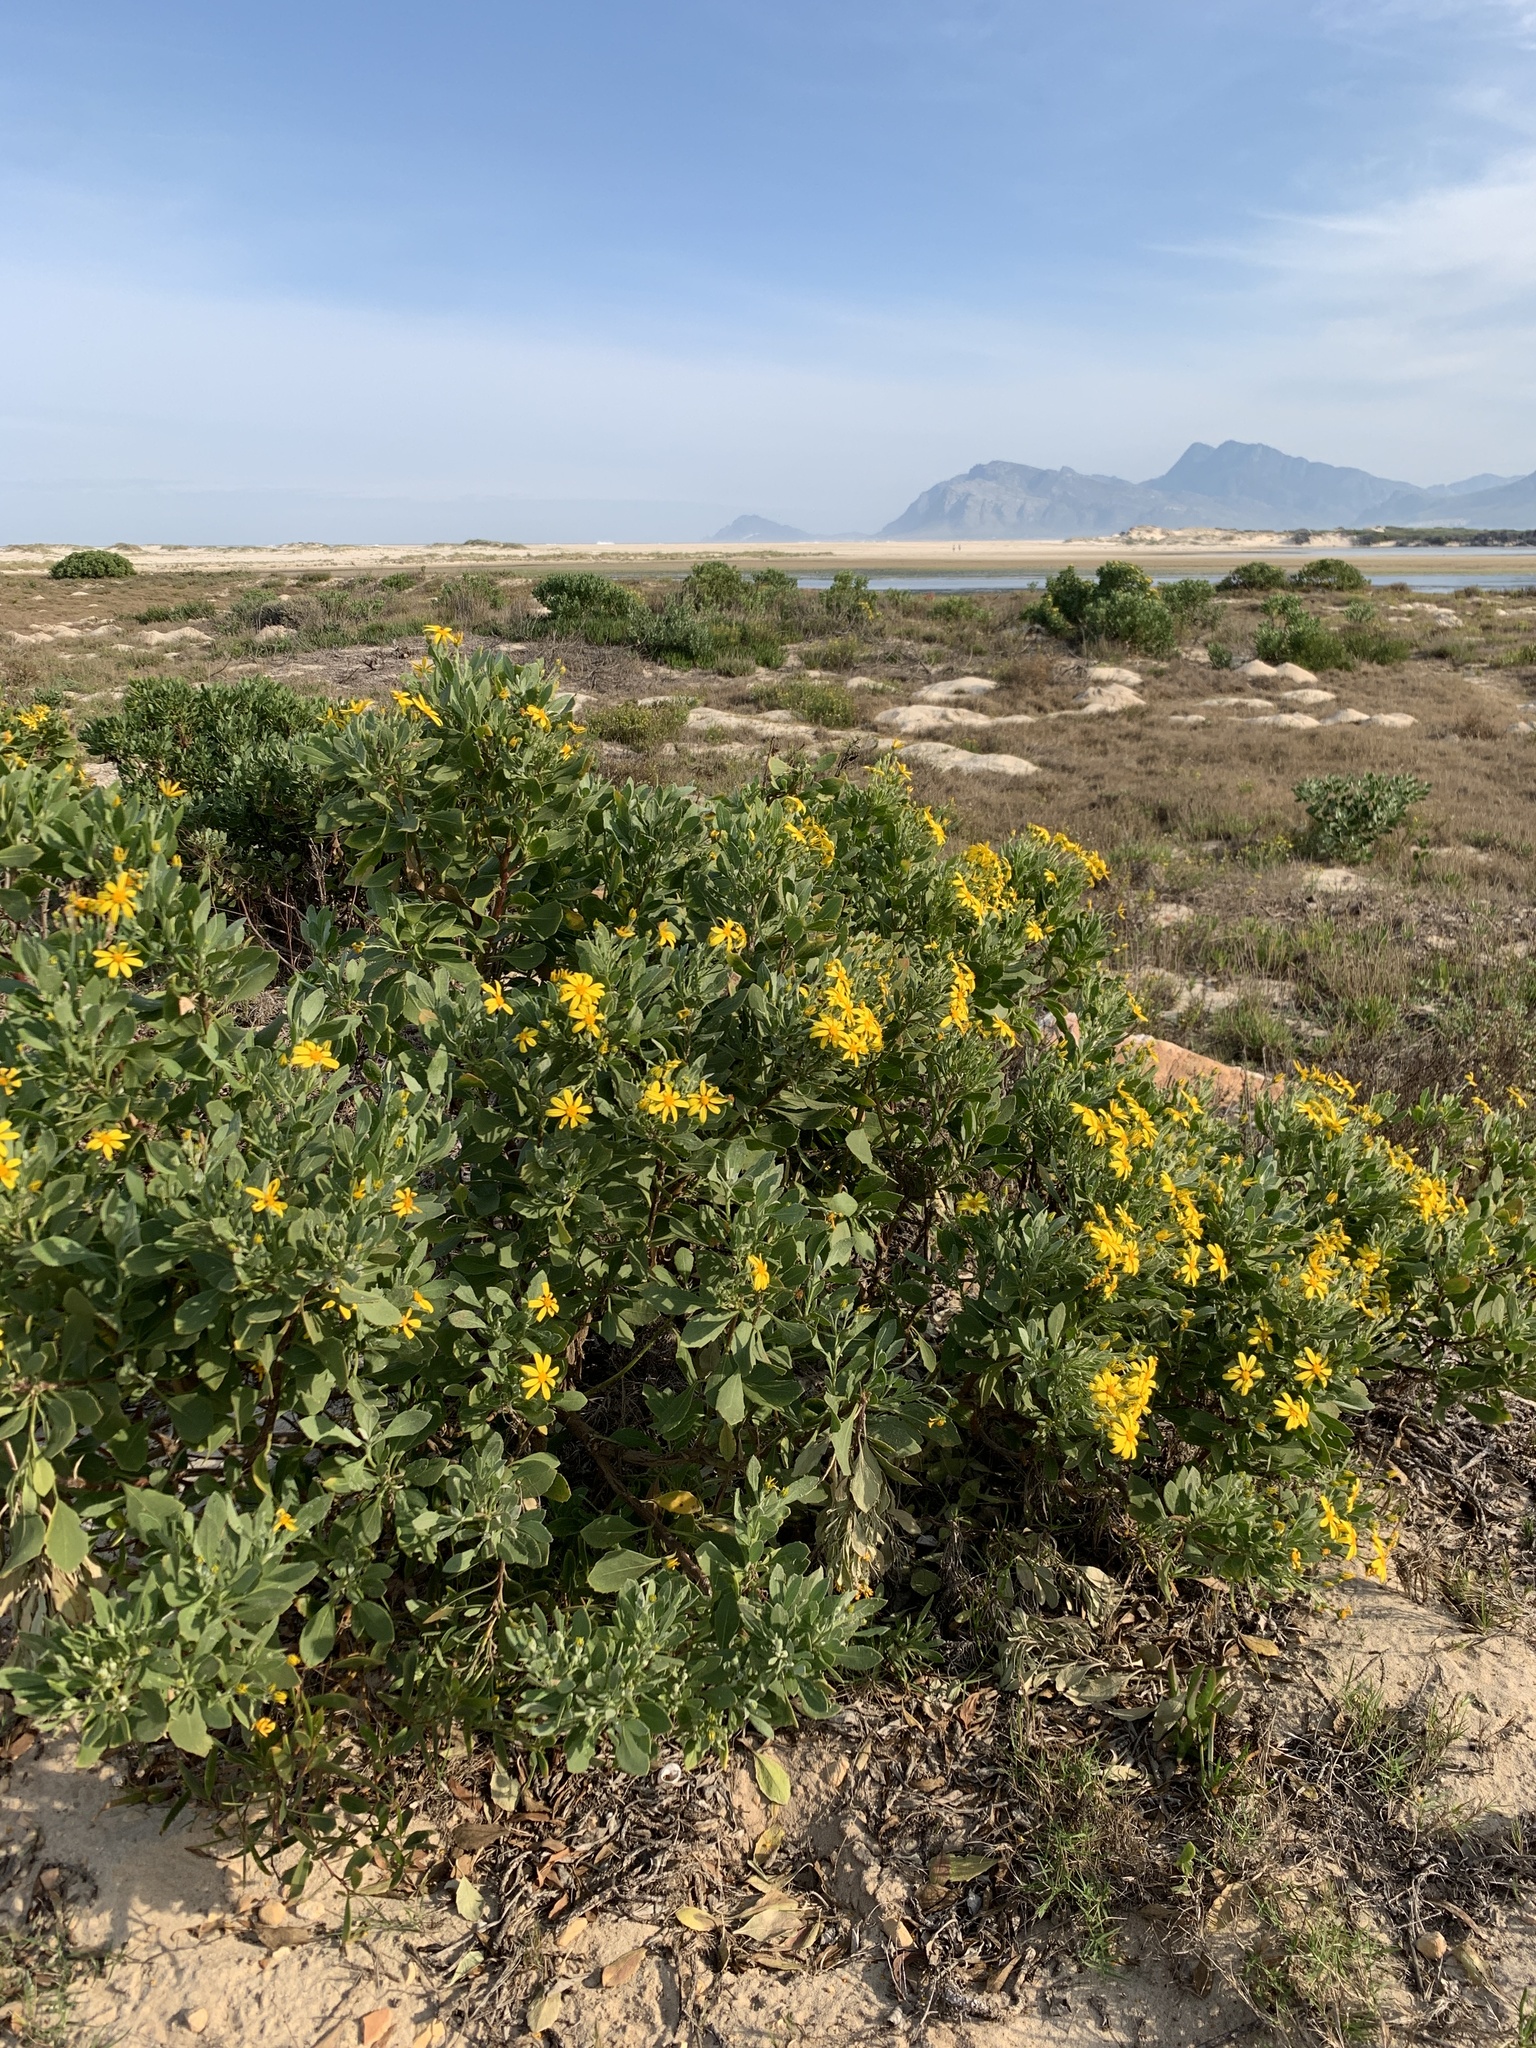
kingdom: Plantae
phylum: Tracheophyta
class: Magnoliopsida
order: Asterales
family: Asteraceae
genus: Osteospermum
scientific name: Osteospermum moniliferum
